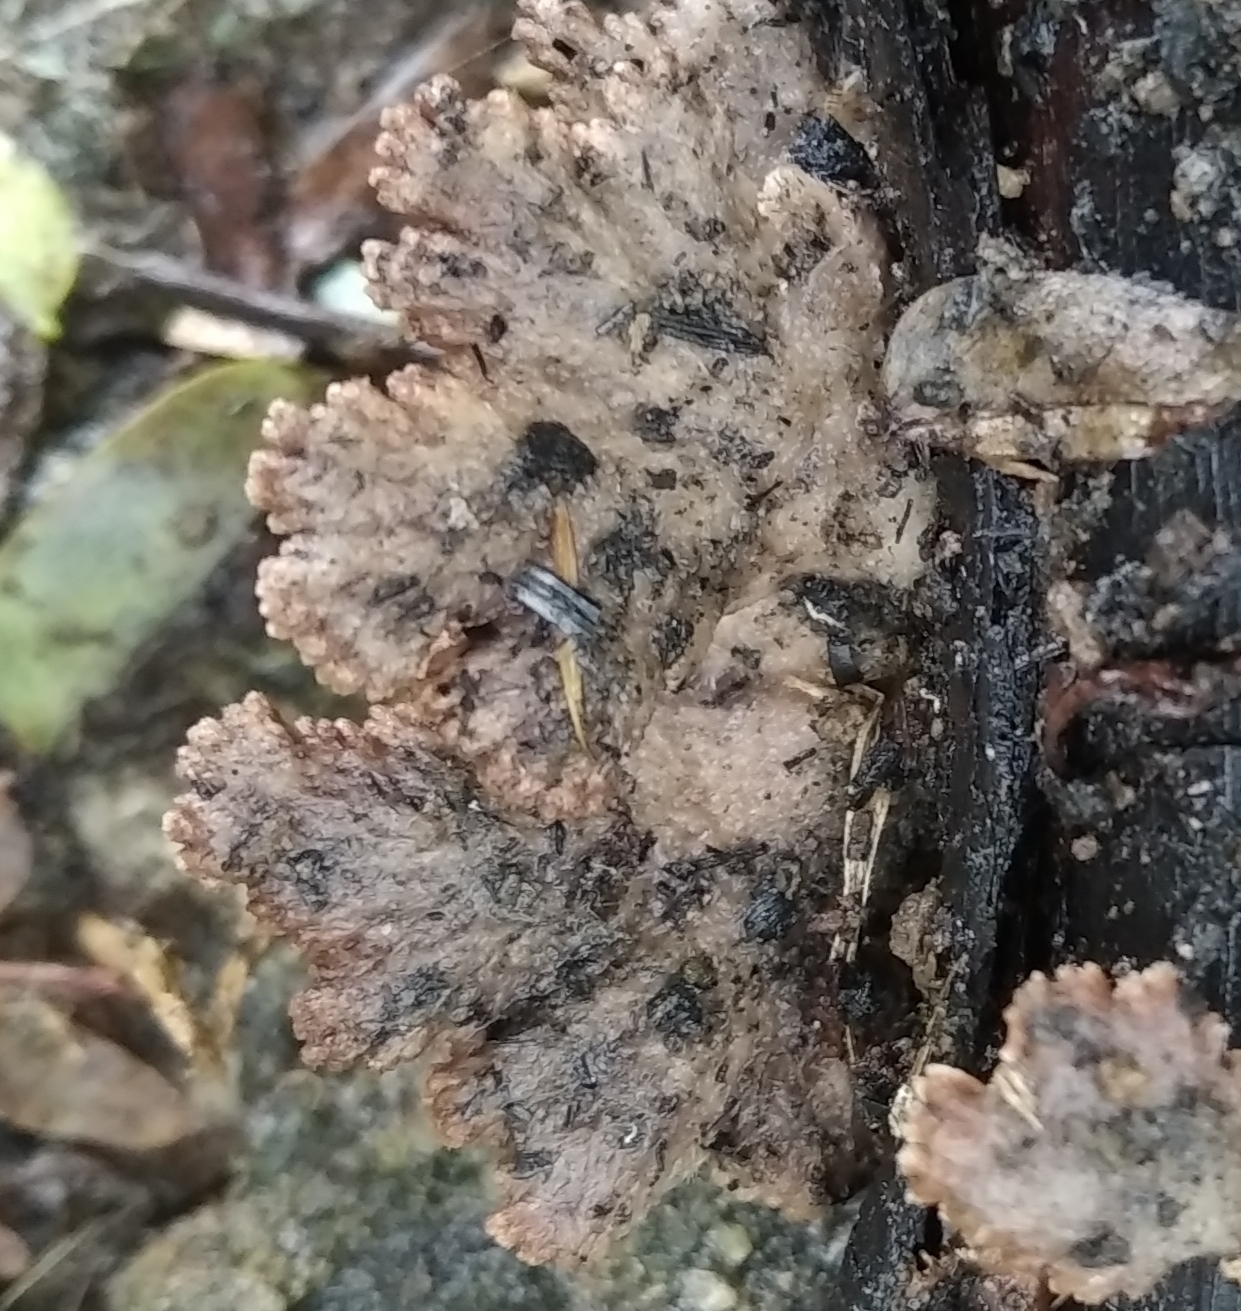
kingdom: Fungi
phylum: Basidiomycota
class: Agaricomycetes
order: Agaricales
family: Schizophyllaceae
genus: Schizophyllum
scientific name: Schizophyllum commune
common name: Common porecrust
